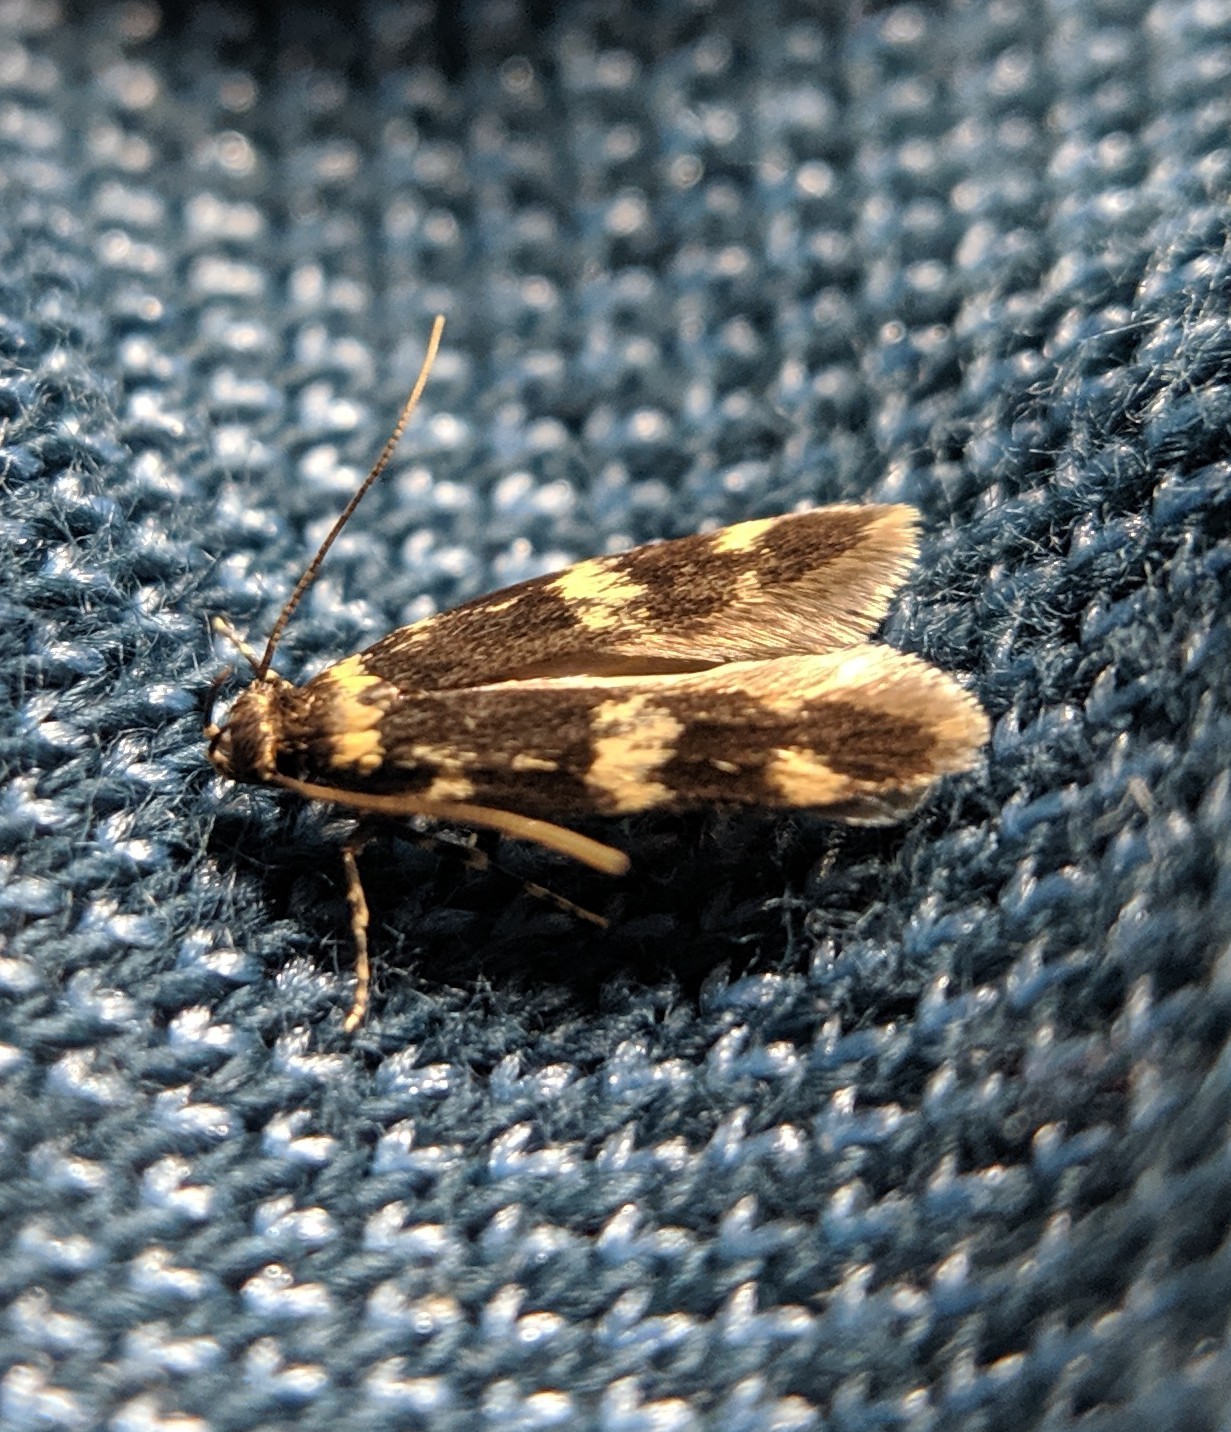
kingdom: Animalia
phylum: Arthropoda
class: Insecta
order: Lepidoptera
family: Autostichidae
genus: Oegoconia
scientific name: Oegoconia quadripuncta
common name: Four-spotted obscure
